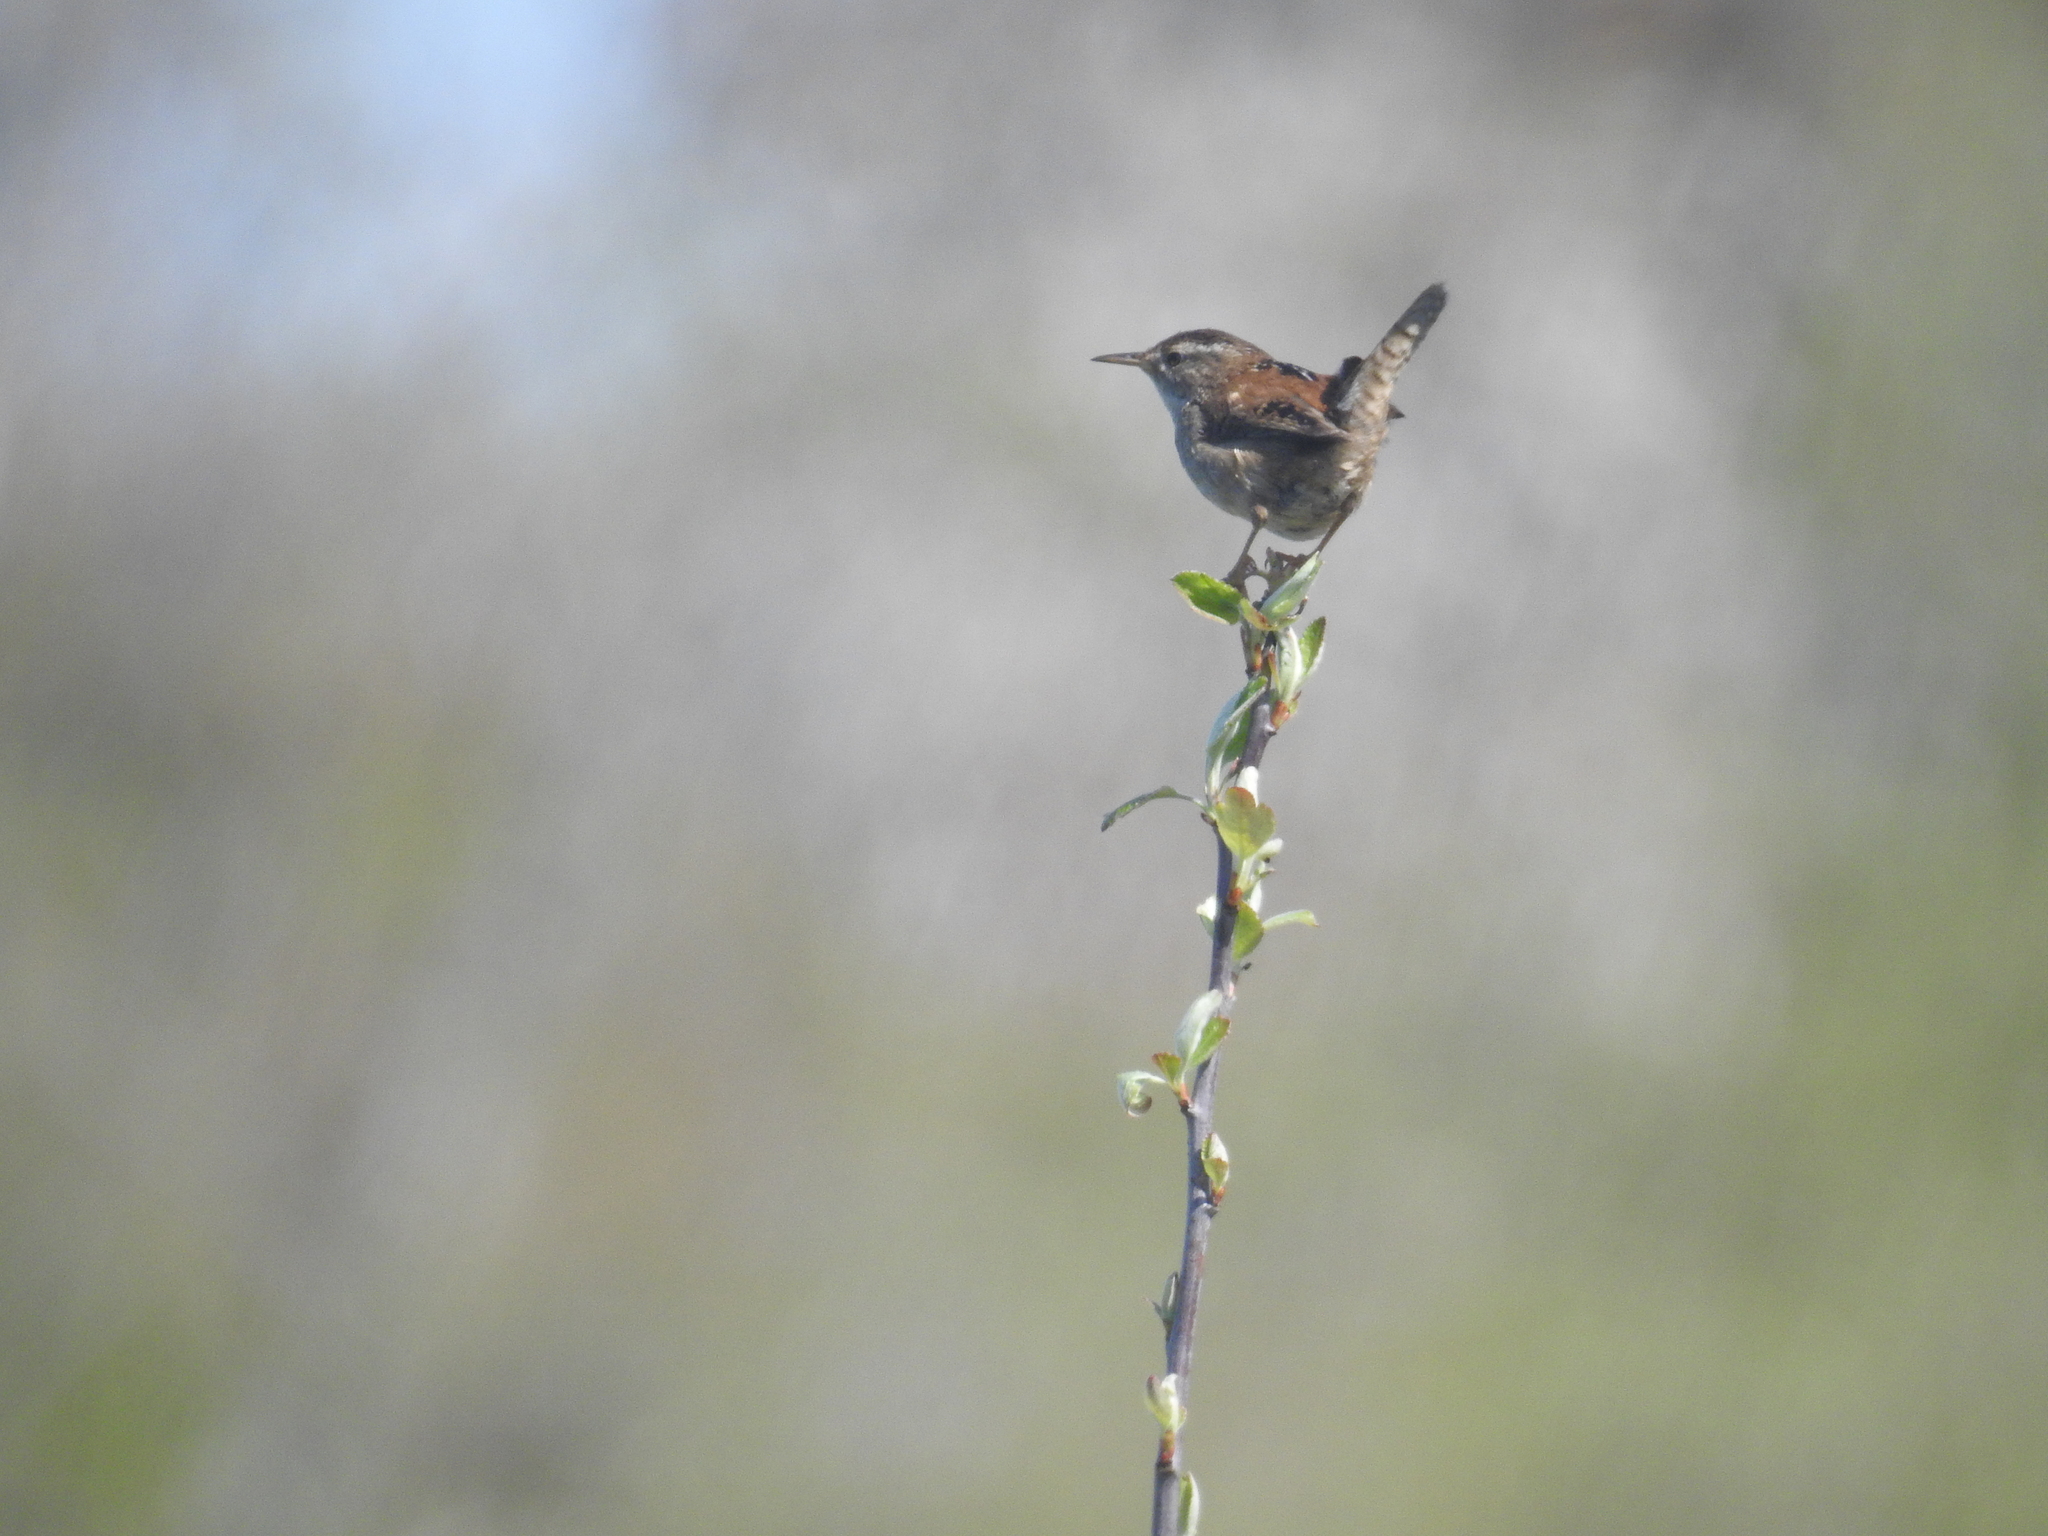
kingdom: Animalia
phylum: Chordata
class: Aves
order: Passeriformes
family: Troglodytidae
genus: Cistothorus
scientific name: Cistothorus palustris
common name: Marsh wren
